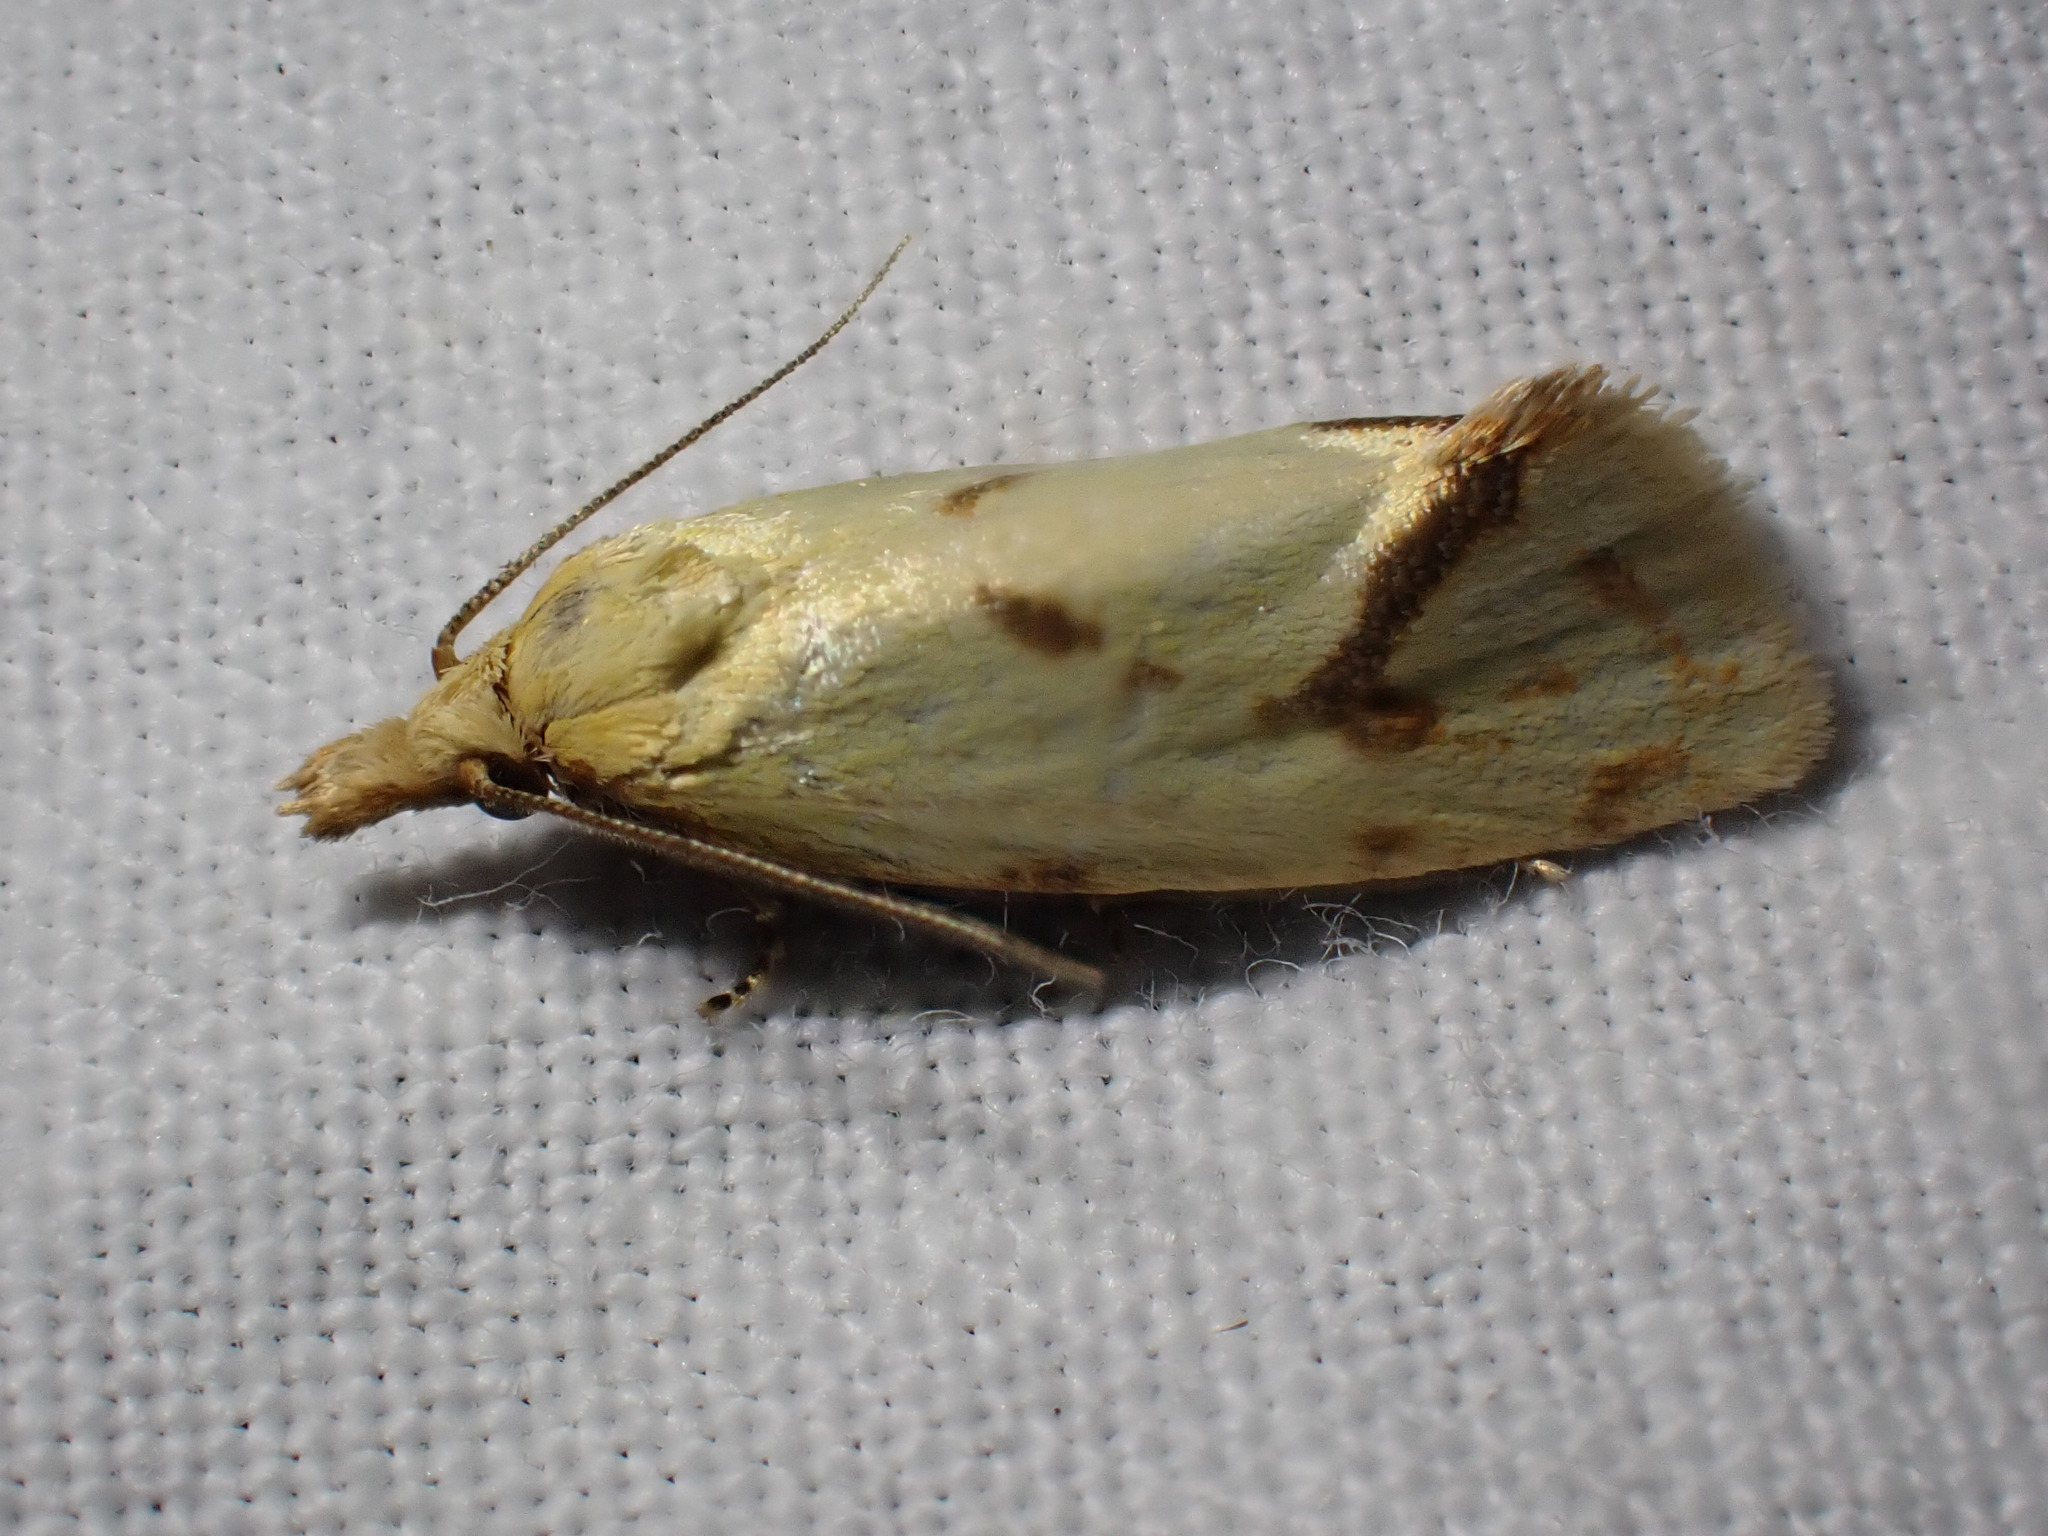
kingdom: Animalia
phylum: Arthropoda
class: Insecta
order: Lepidoptera
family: Tortricidae
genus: Agapeta
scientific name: Agapeta hamana
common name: Common yellow conch
